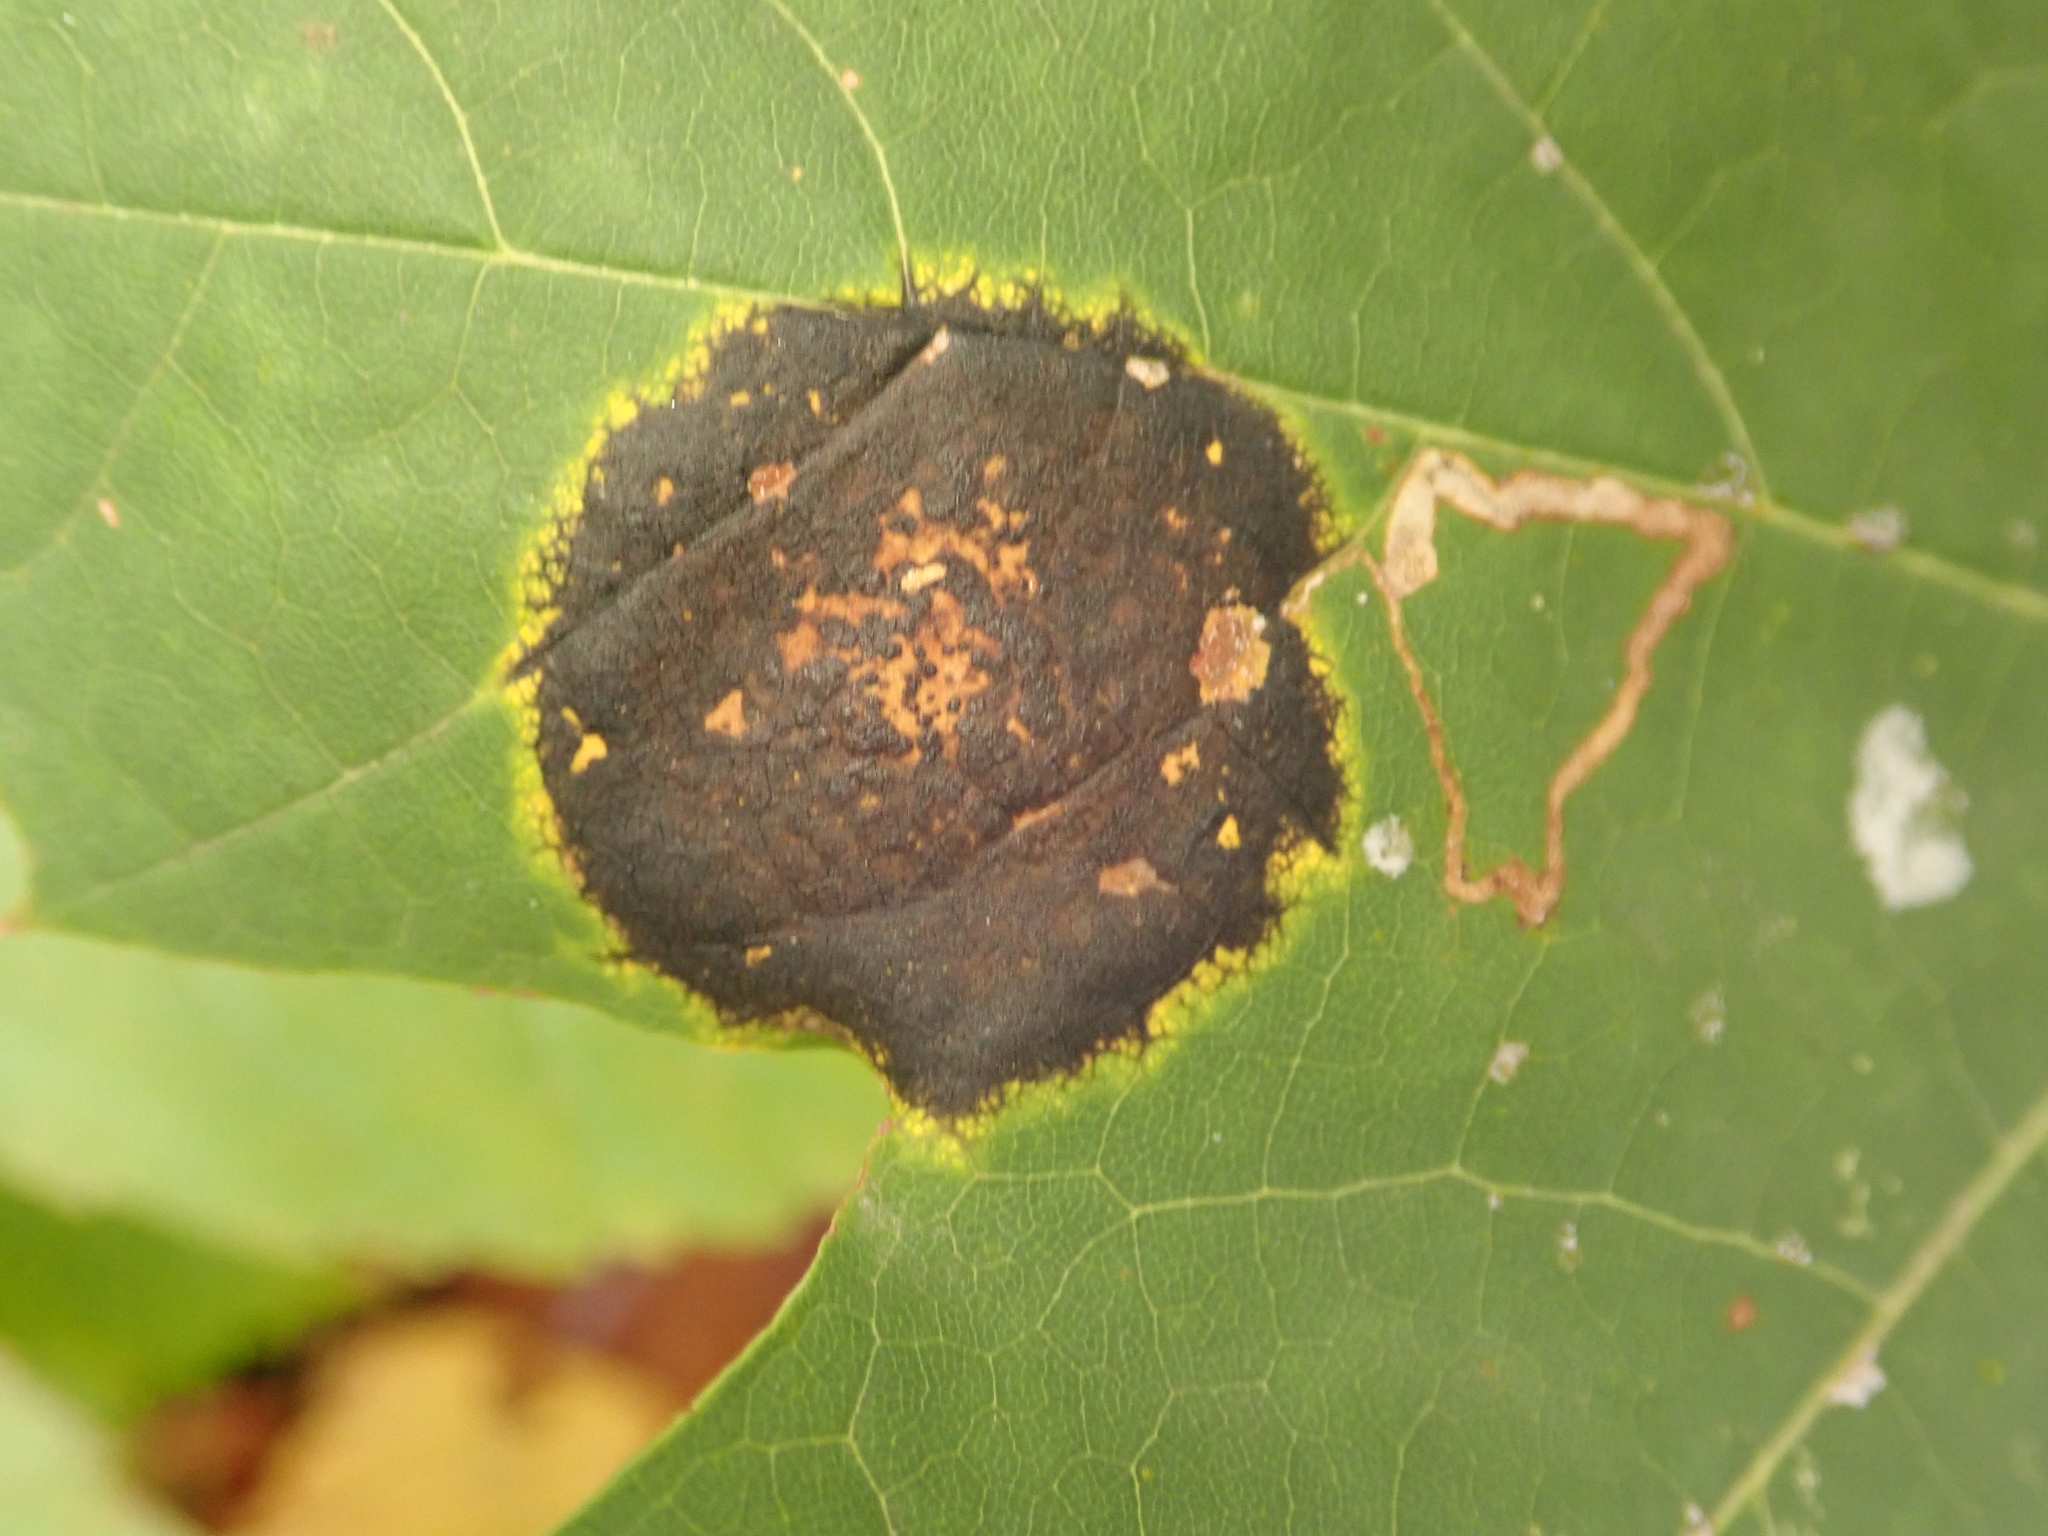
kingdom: Fungi
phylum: Ascomycota
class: Leotiomycetes
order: Rhytismatales
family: Rhytismataceae
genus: Rhytisma
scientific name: Rhytisma acerinum
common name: European tar spot
